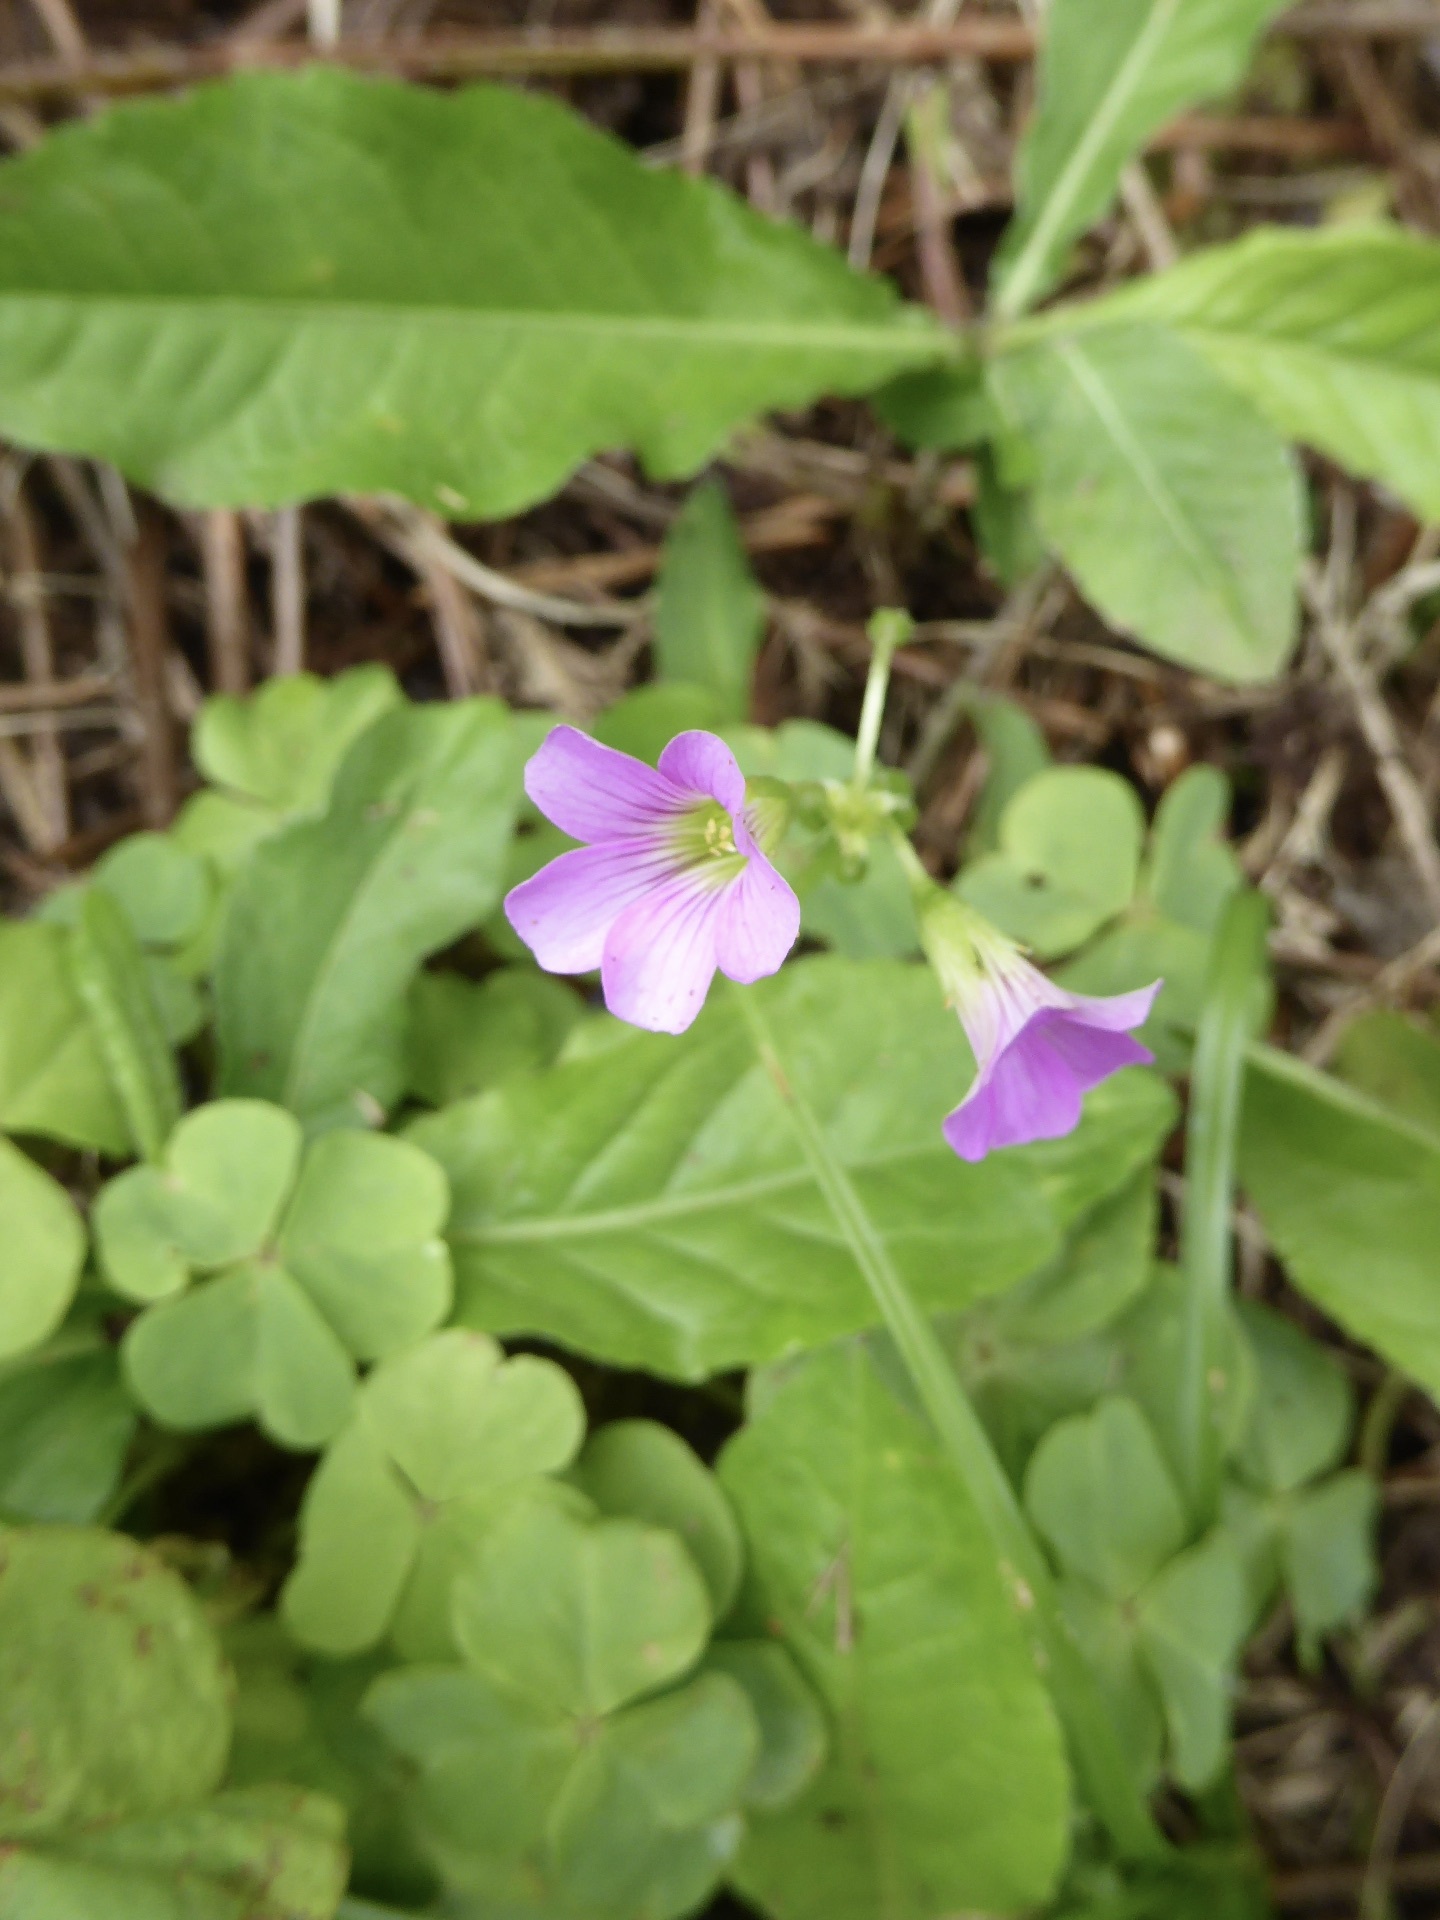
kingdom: Plantae
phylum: Tracheophyta
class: Magnoliopsida
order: Oxalidales
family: Oxalidaceae
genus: Oxalis
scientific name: Oxalis debilis
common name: Large-flowered pink-sorrel
